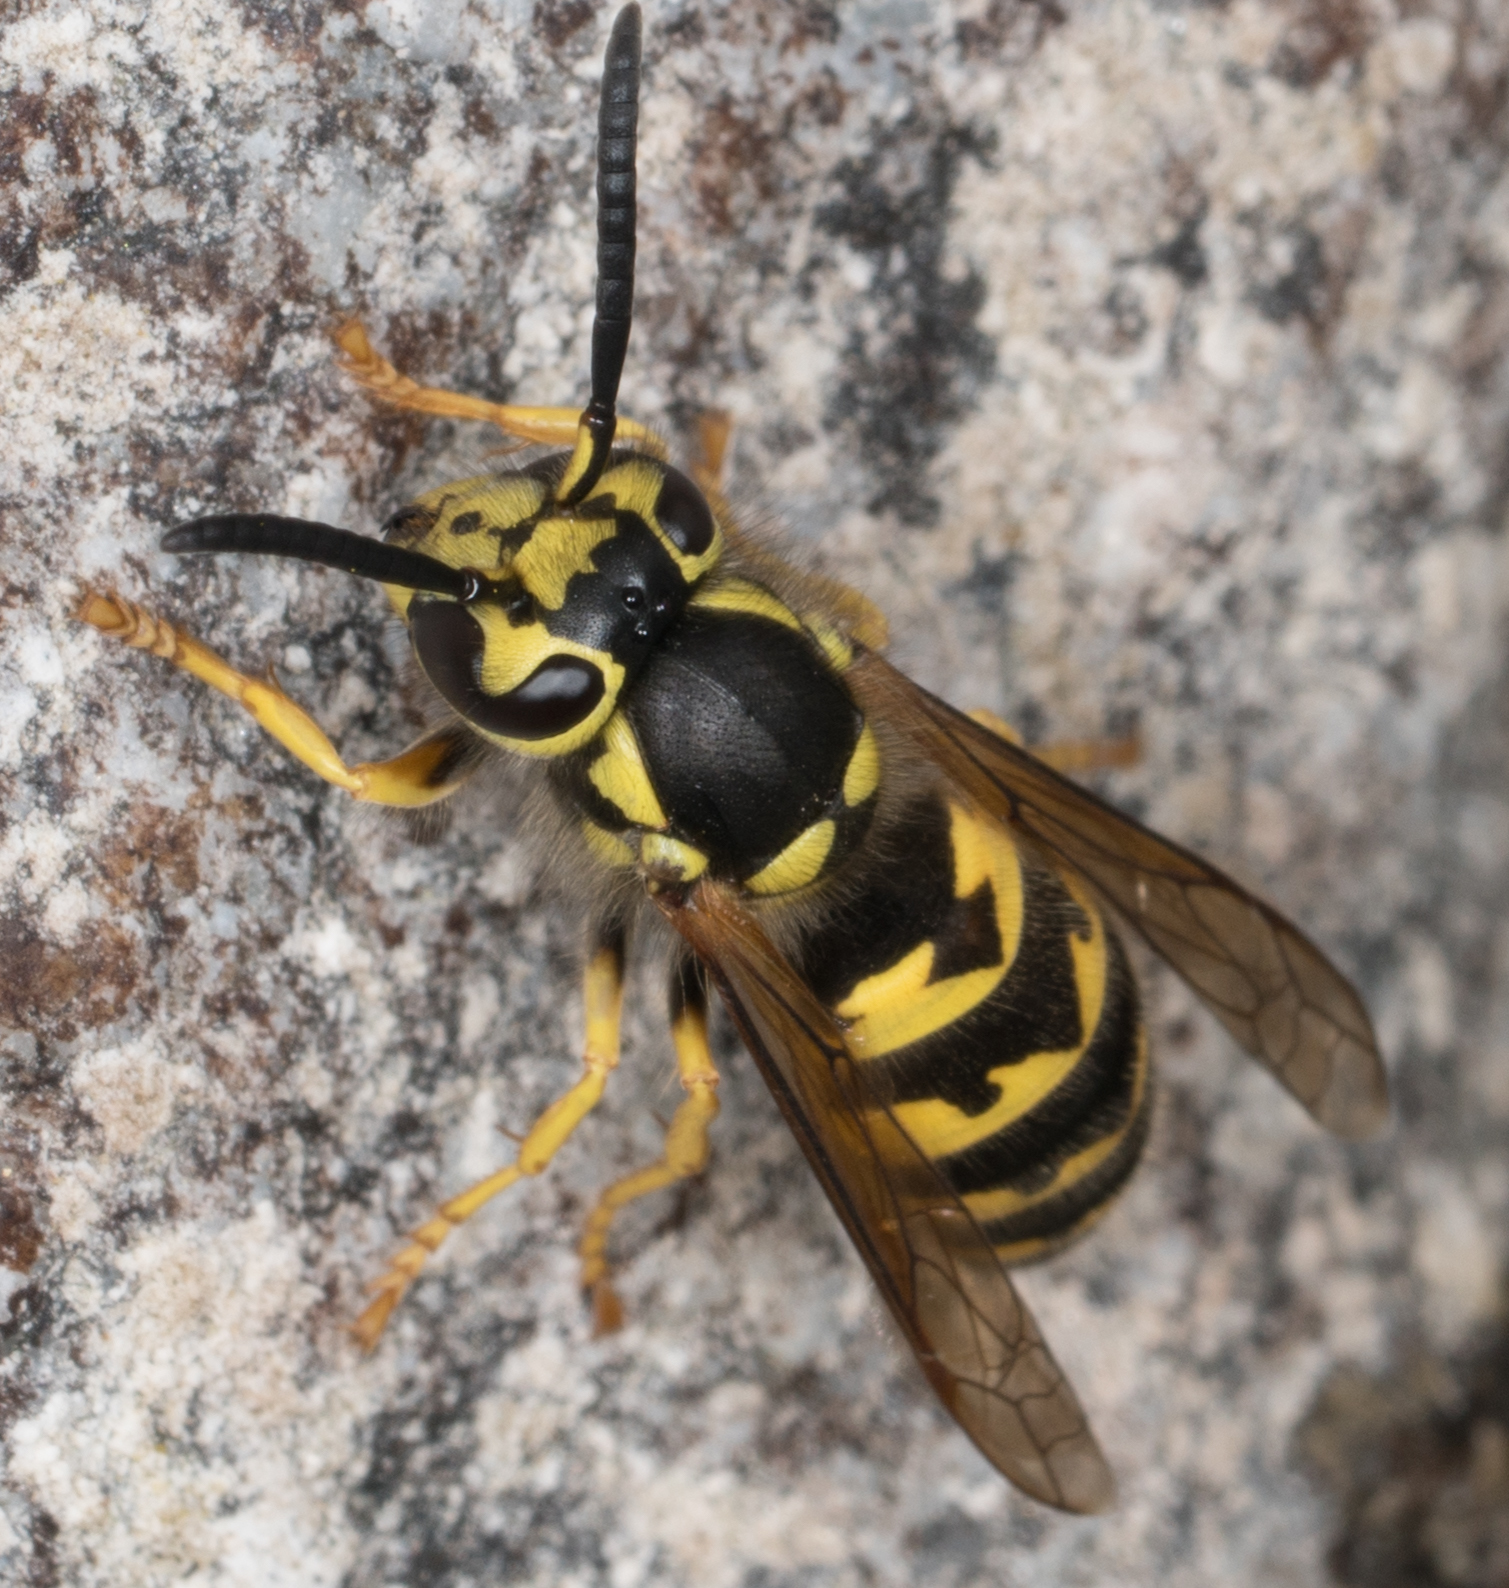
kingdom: Animalia
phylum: Arthropoda
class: Insecta
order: Hymenoptera
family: Vespidae
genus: Vespula
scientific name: Vespula pensylvanica
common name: Western yellowjacket
